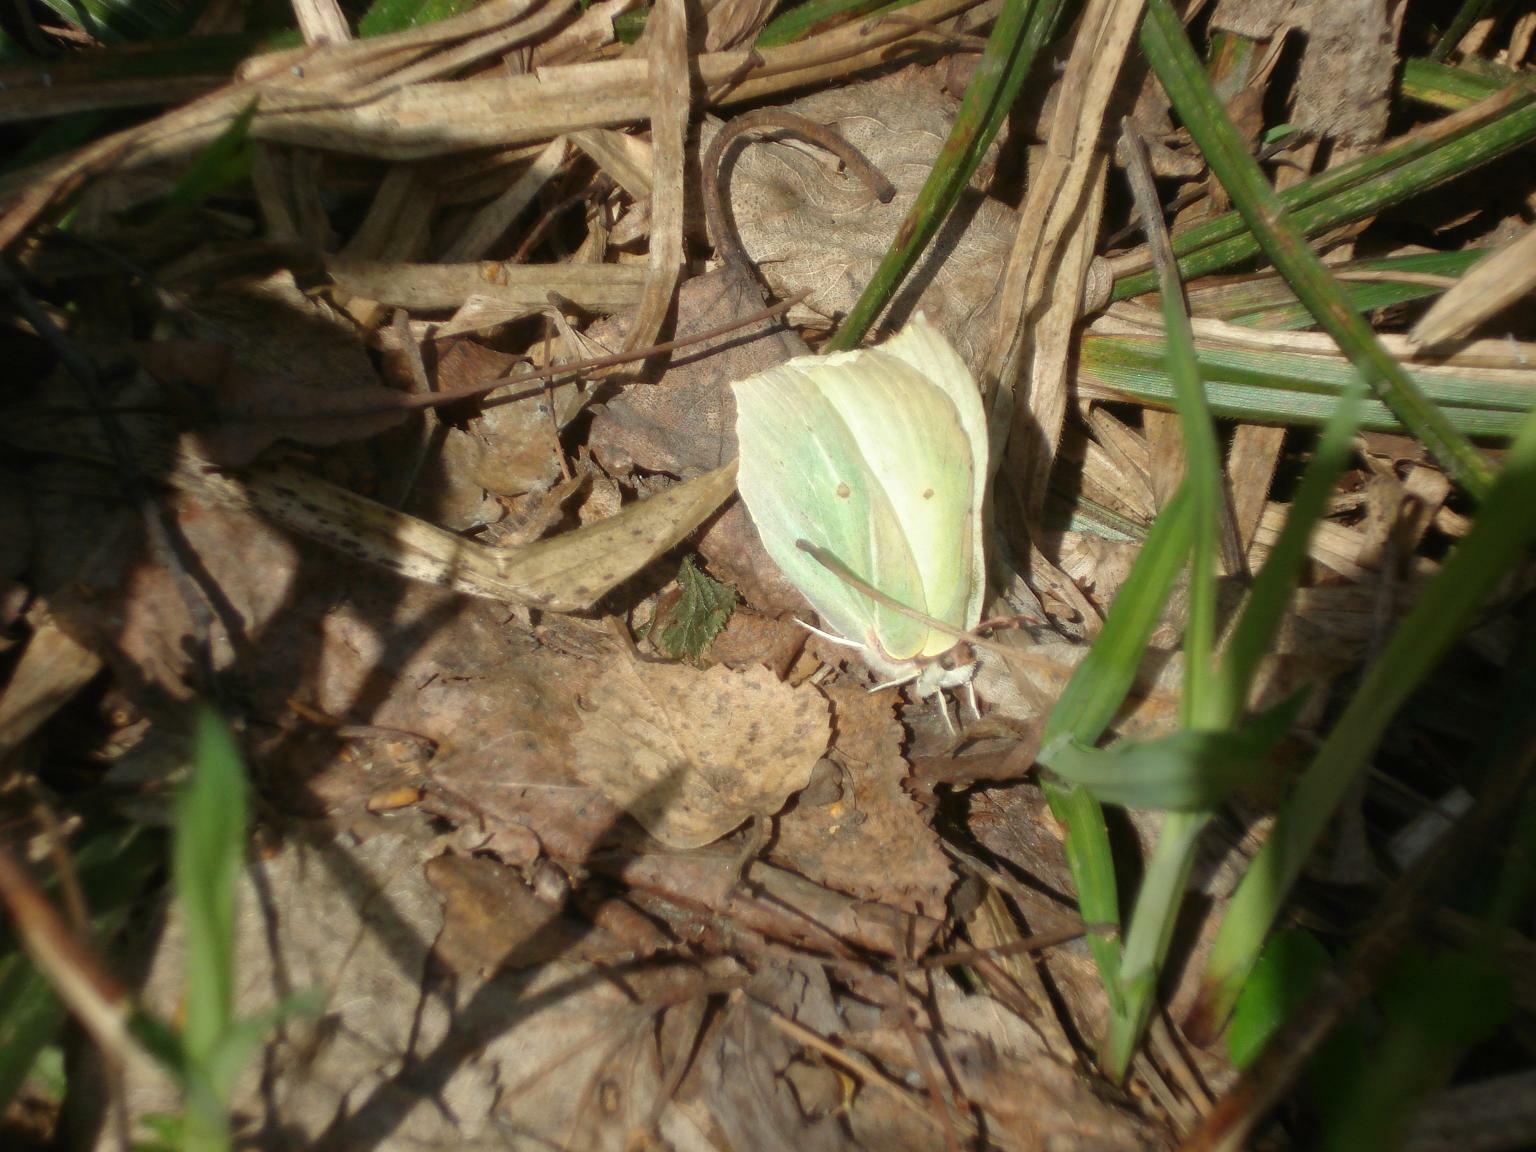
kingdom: Animalia
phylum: Arthropoda
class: Insecta
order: Lepidoptera
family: Pieridae
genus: Gonepteryx
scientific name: Gonepteryx rhamni
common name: Brimstone
